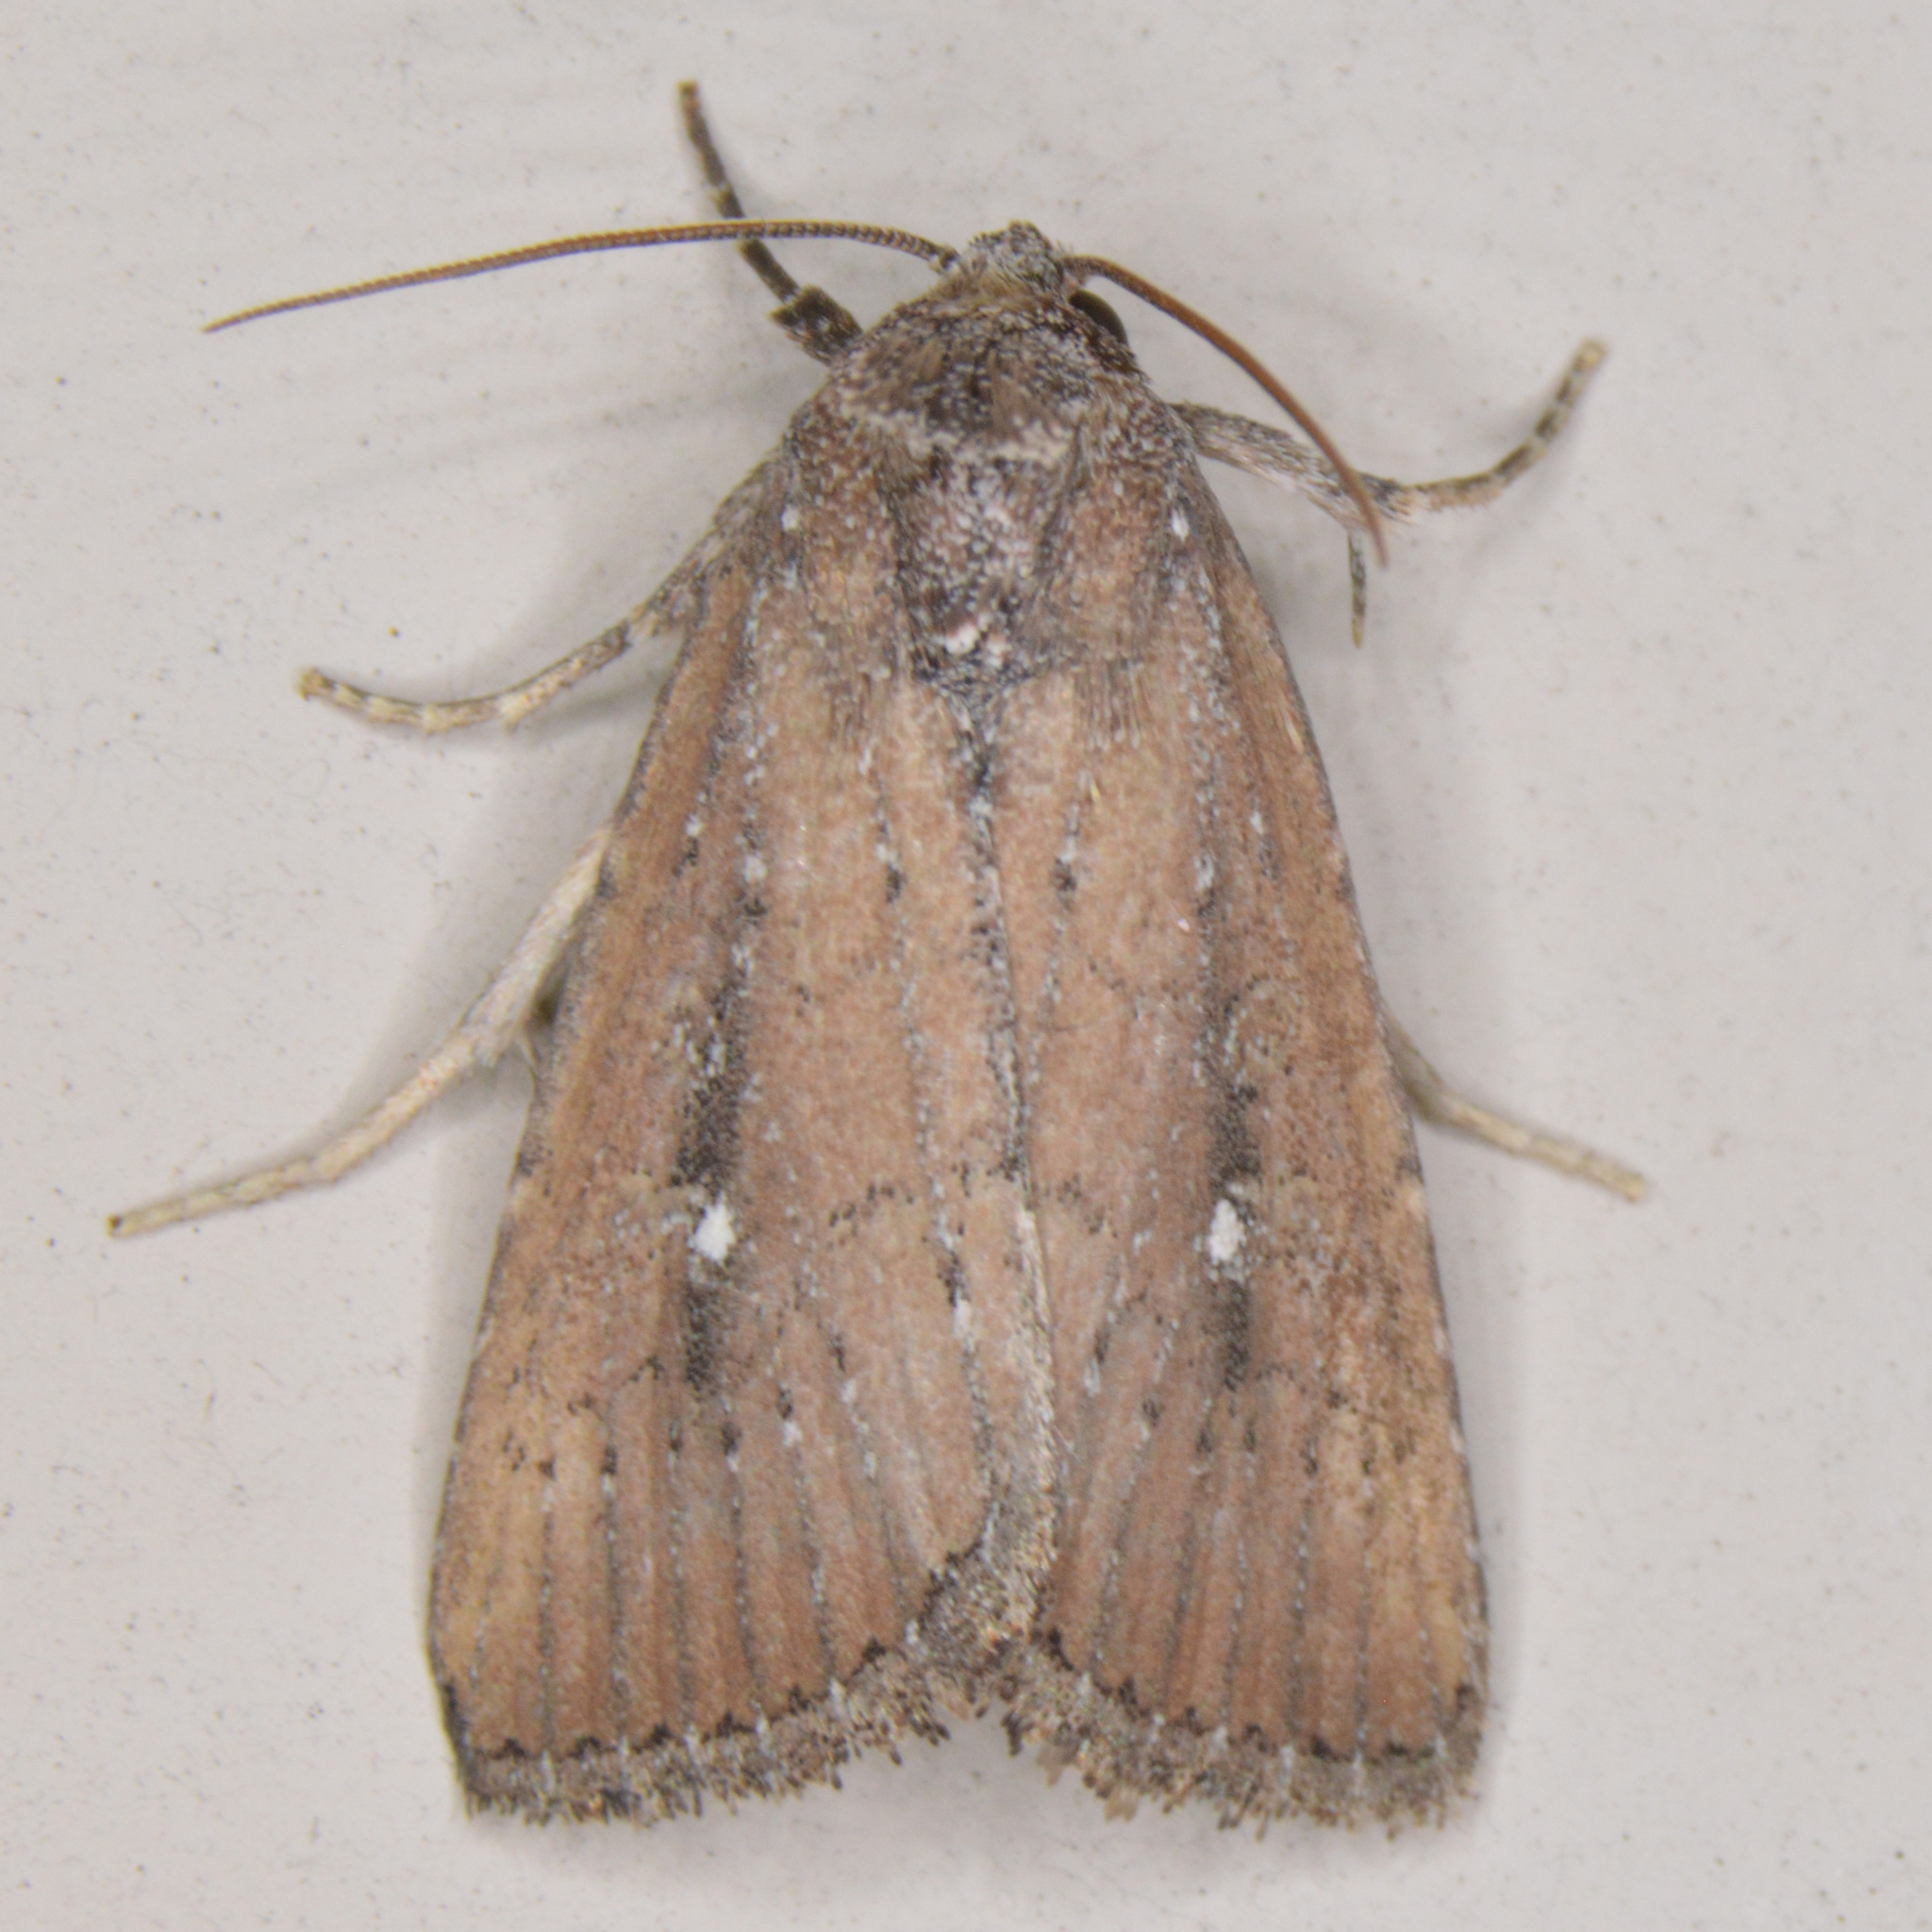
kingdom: Animalia
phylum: Arthropoda
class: Insecta
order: Lepidoptera
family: Noctuidae
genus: Condica
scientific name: Condica videns
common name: White-dotted groundling
